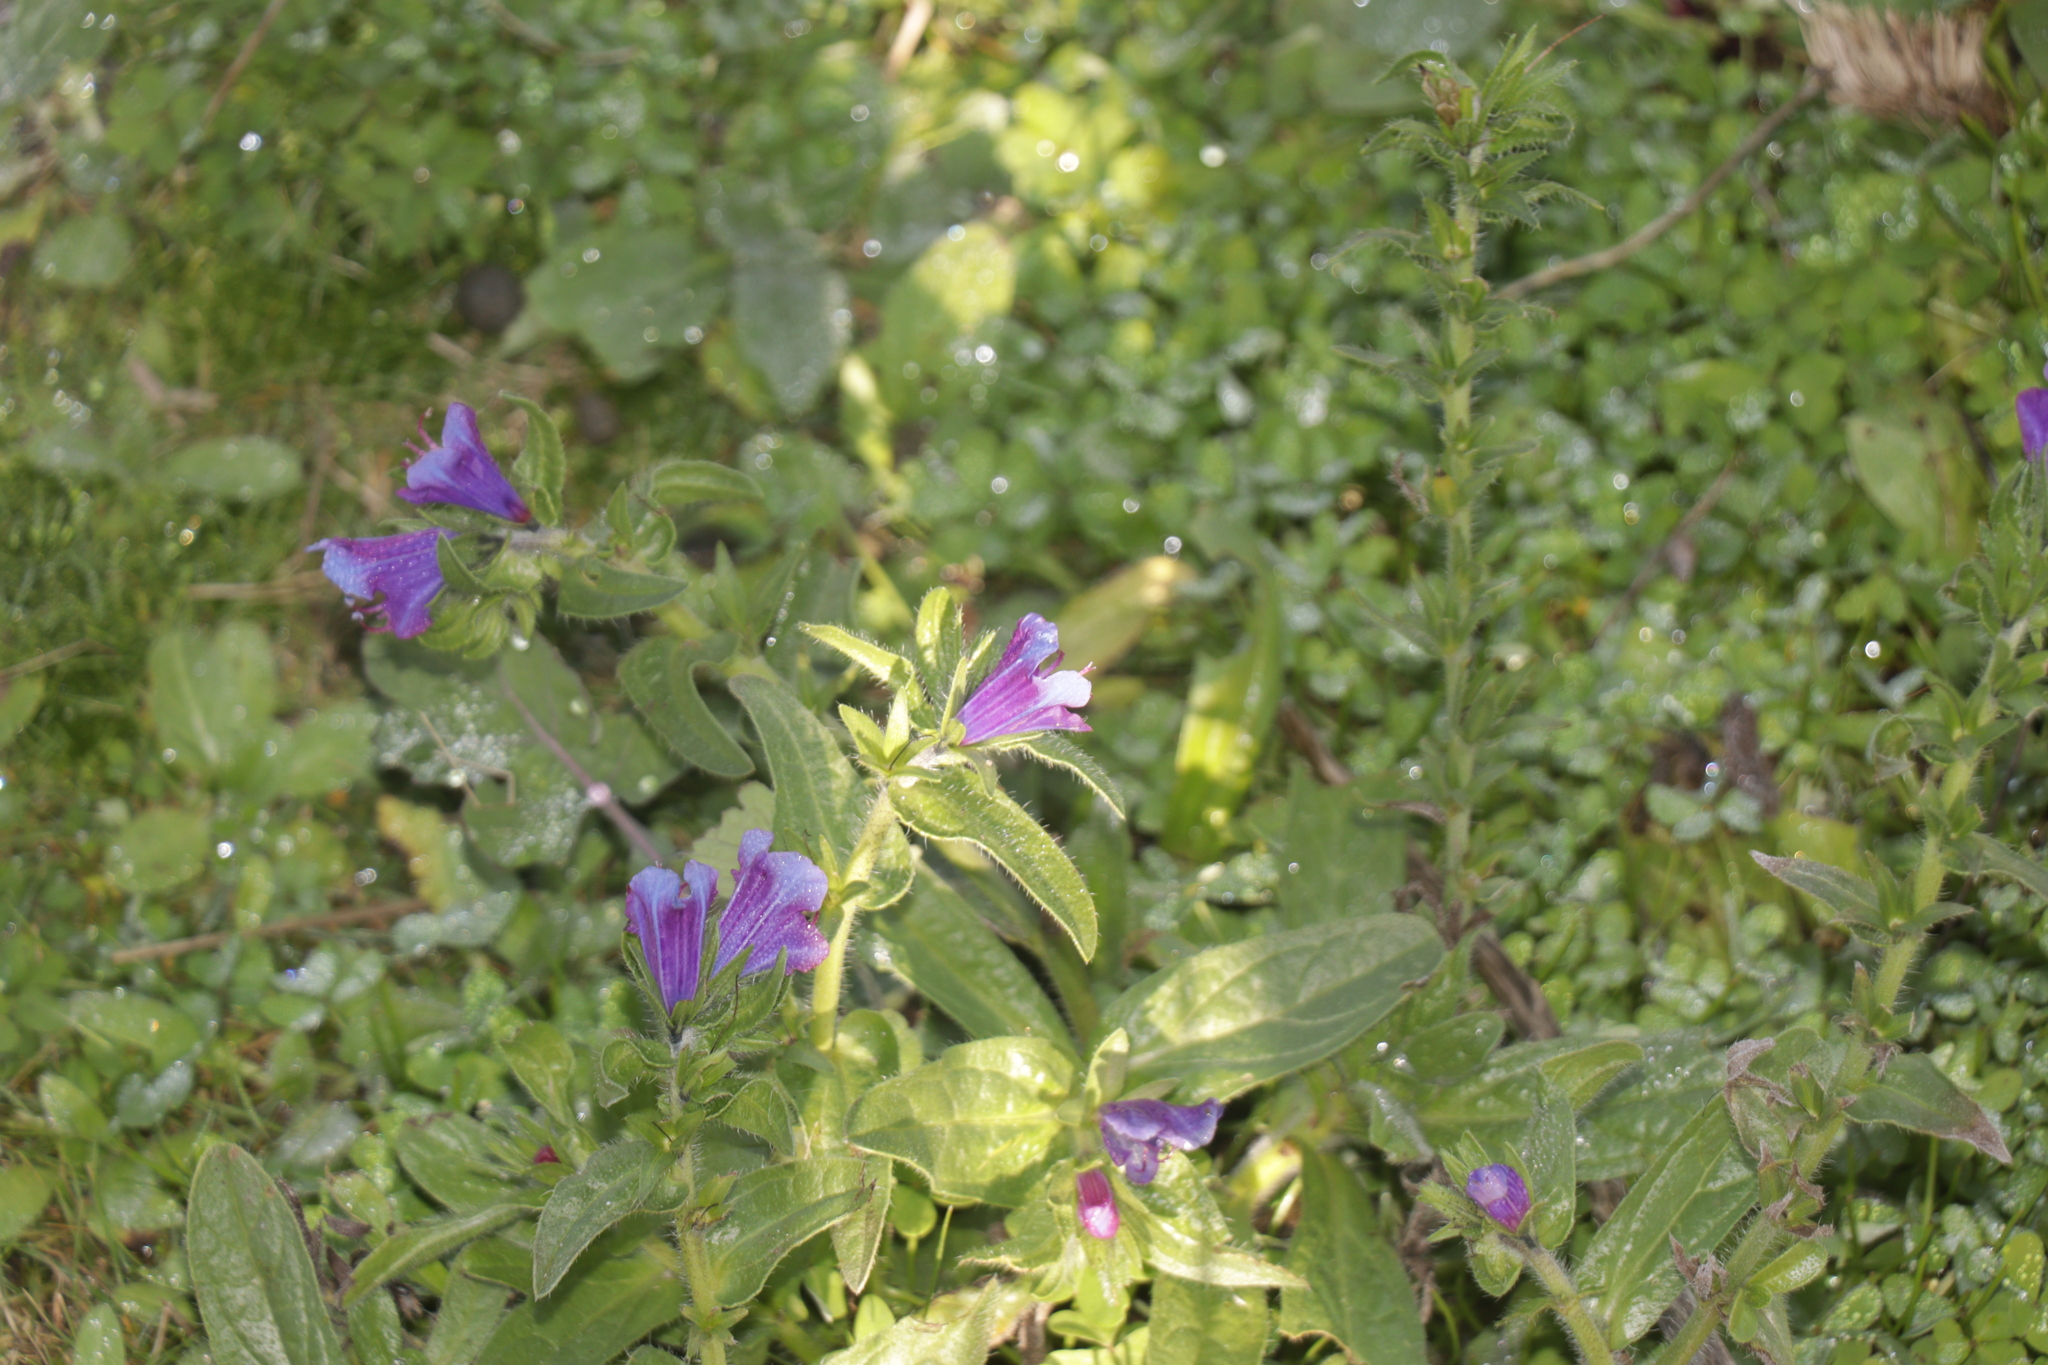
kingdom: Plantae
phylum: Tracheophyta
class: Magnoliopsida
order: Boraginales
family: Boraginaceae
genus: Echium
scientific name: Echium plantagineum
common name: Purple viper's-bugloss
